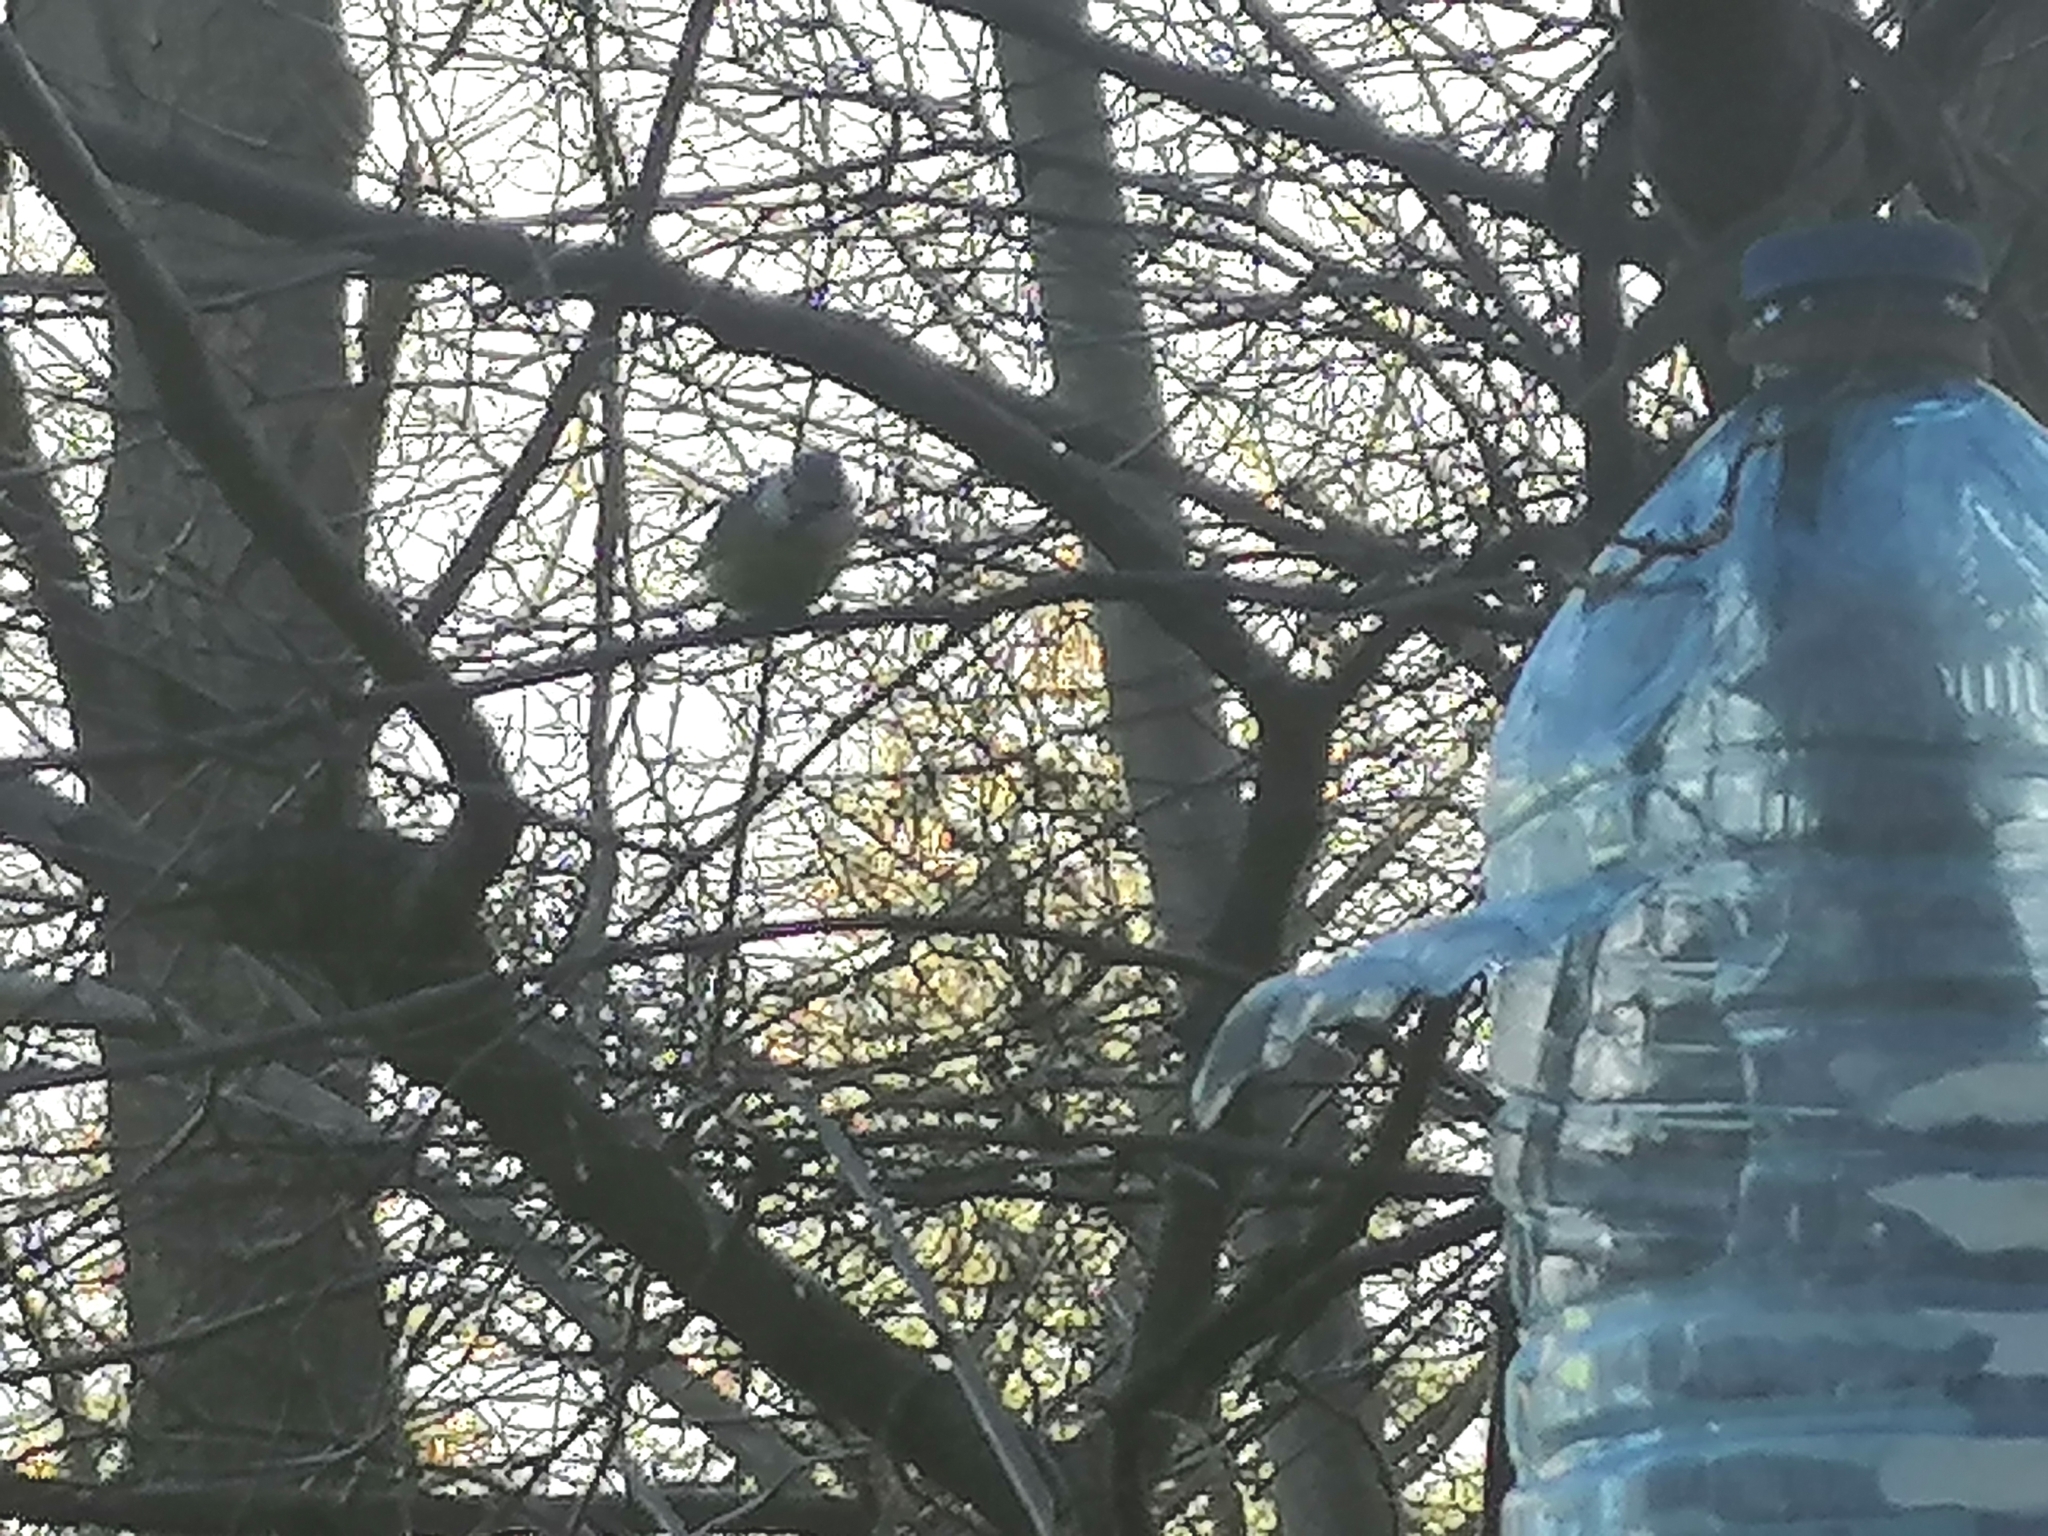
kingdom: Animalia
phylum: Chordata
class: Aves
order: Passeriformes
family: Paridae
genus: Cyanistes
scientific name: Cyanistes caeruleus
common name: Eurasian blue tit
